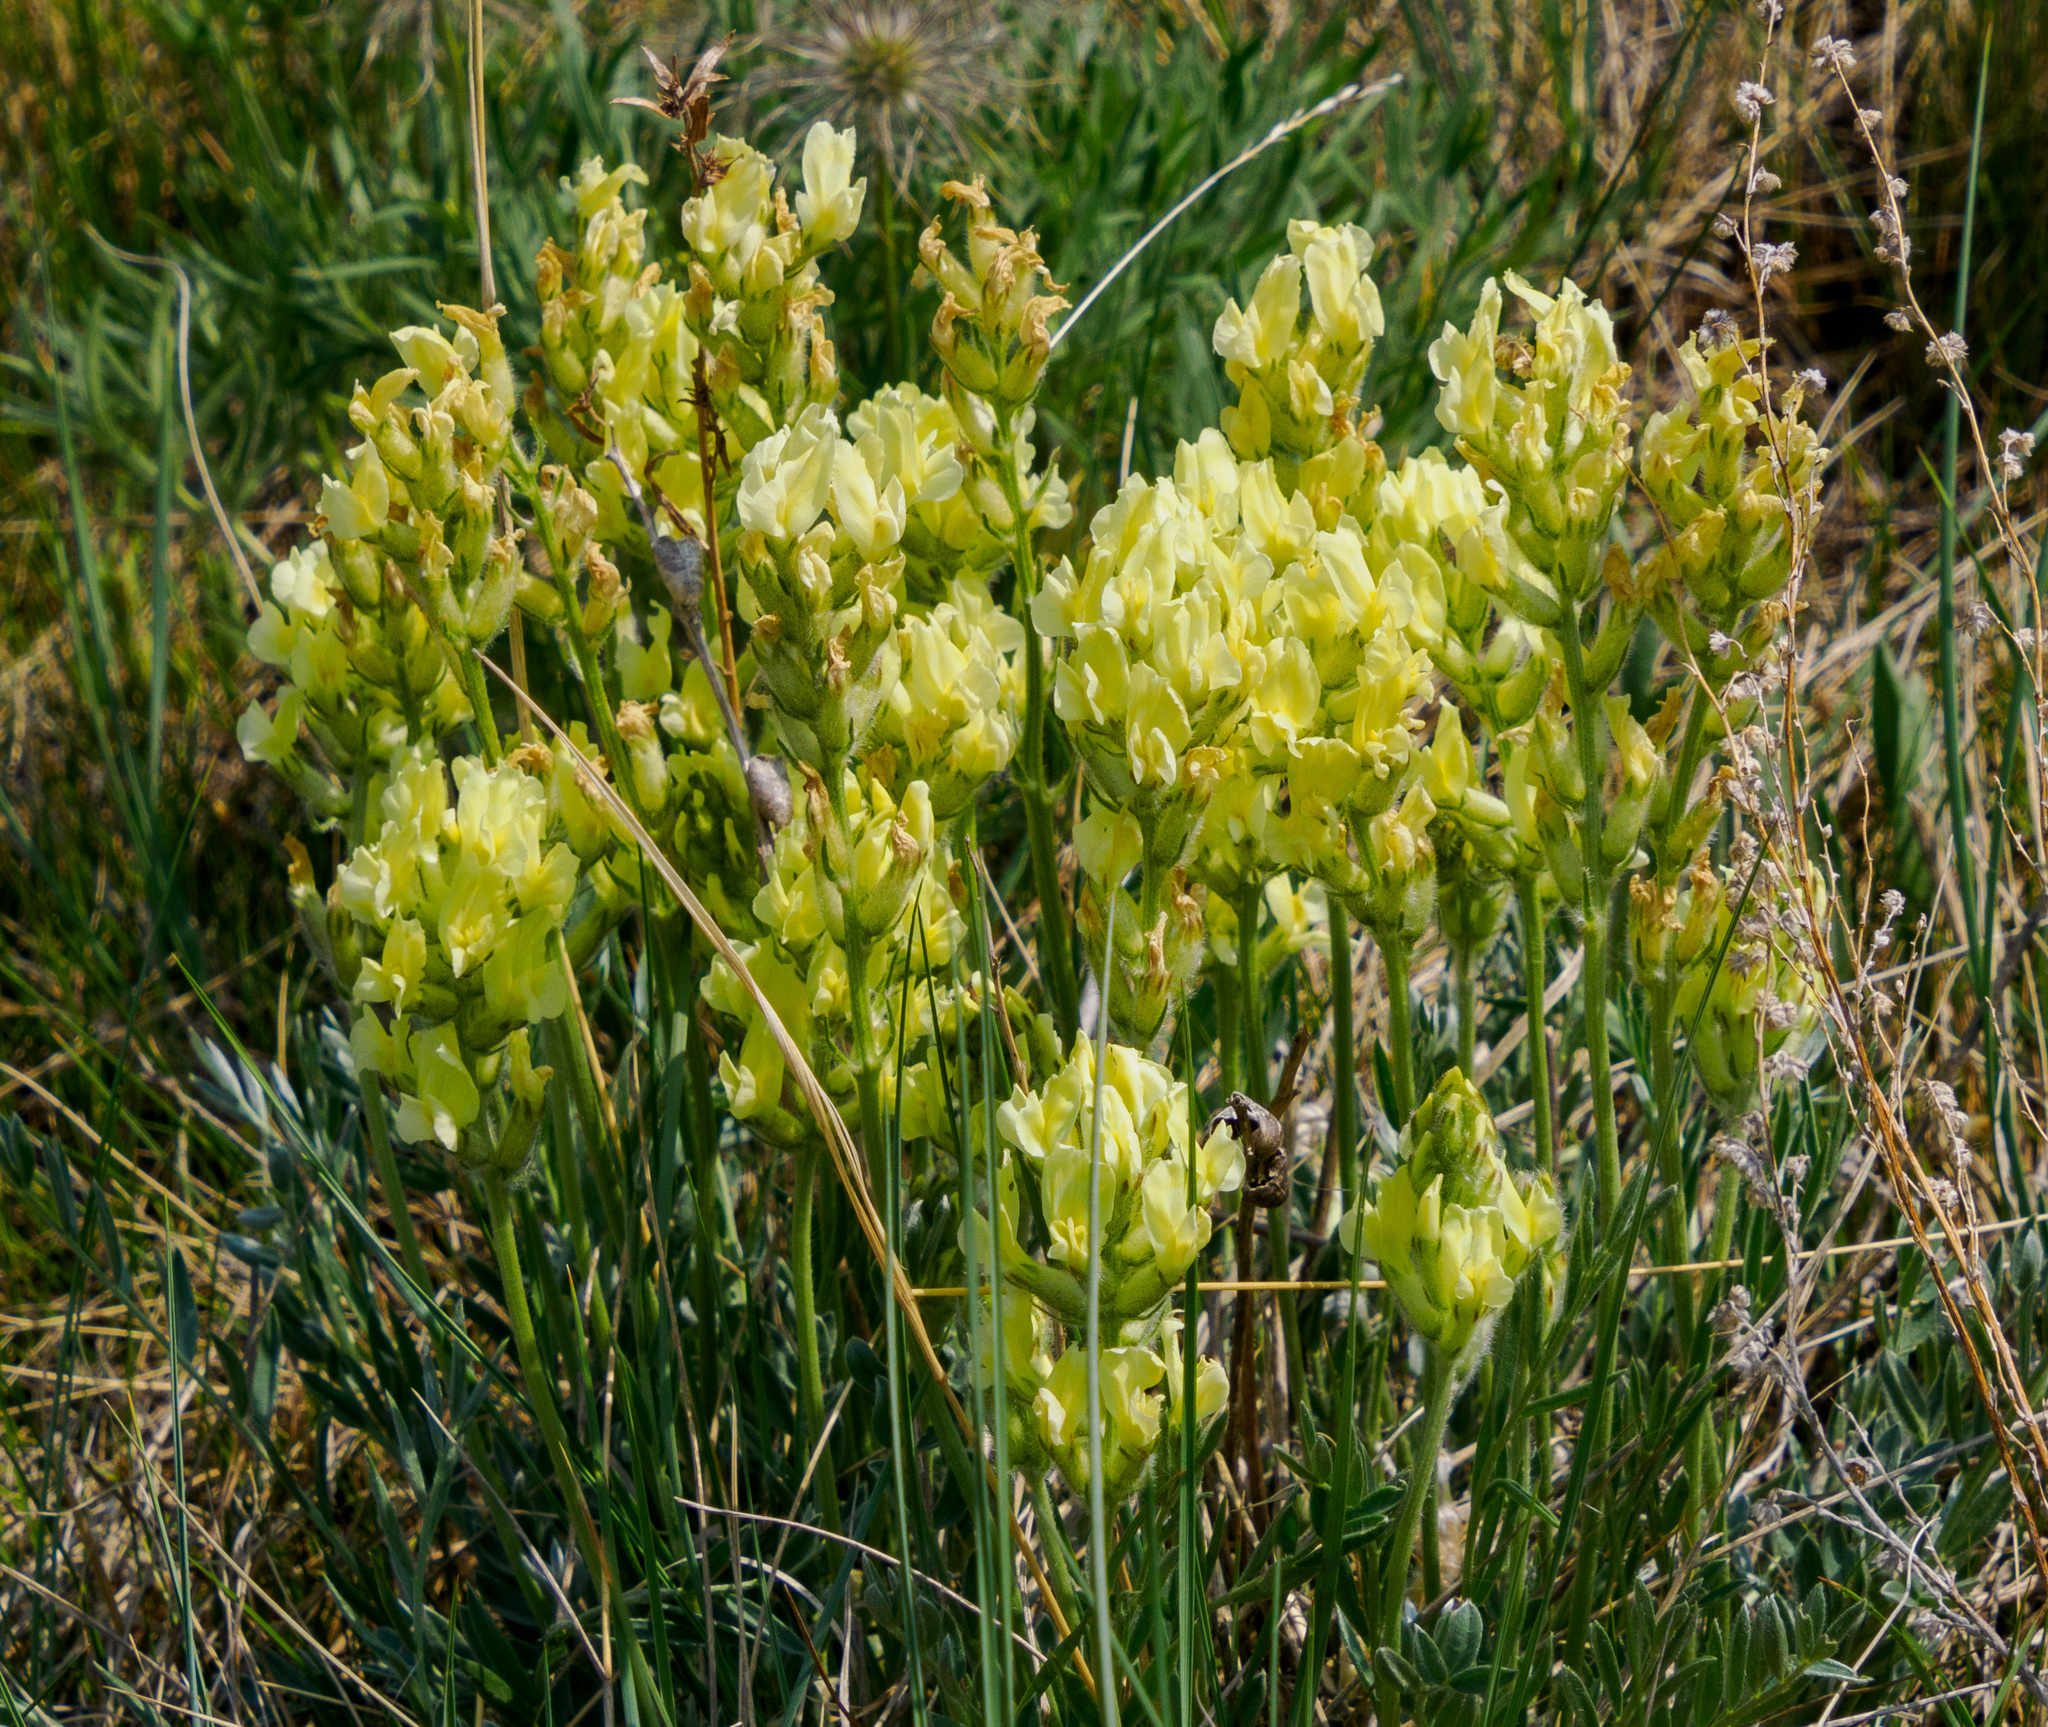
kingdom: Plantae
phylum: Tracheophyta
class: Magnoliopsida
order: Fabales
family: Fabaceae
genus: Oxytropis
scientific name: Oxytropis sericea
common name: Silky locoweed
